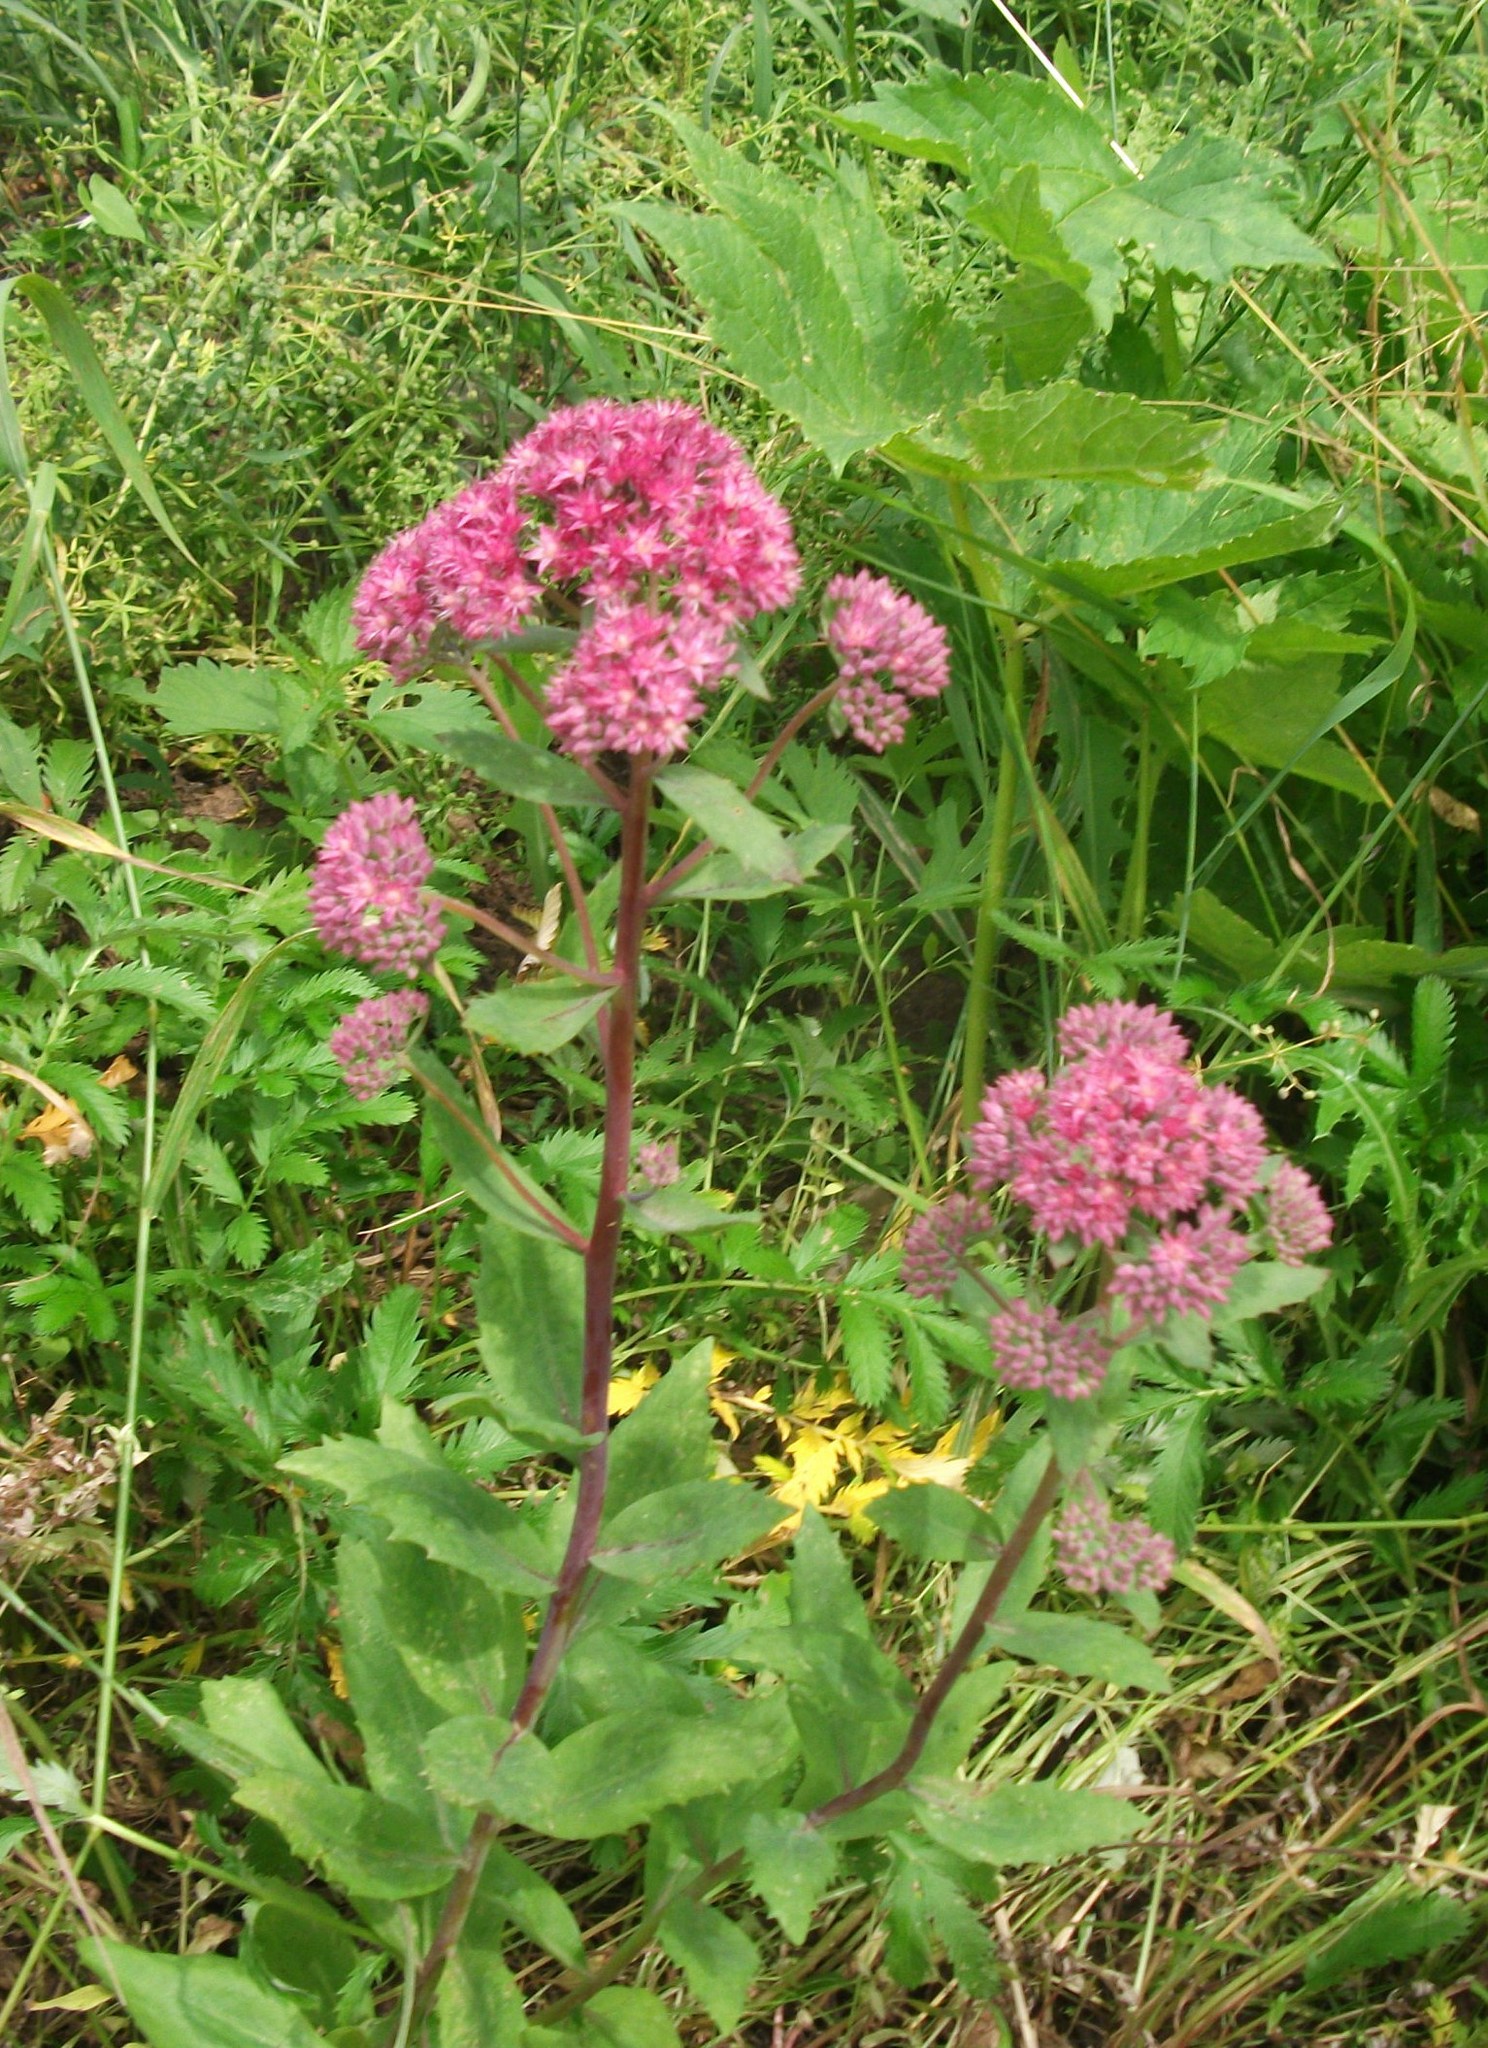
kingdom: Plantae
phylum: Tracheophyta
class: Magnoliopsida
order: Saxifragales
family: Crassulaceae
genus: Hylotelephium
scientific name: Hylotelephium telephium
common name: Live-forever
